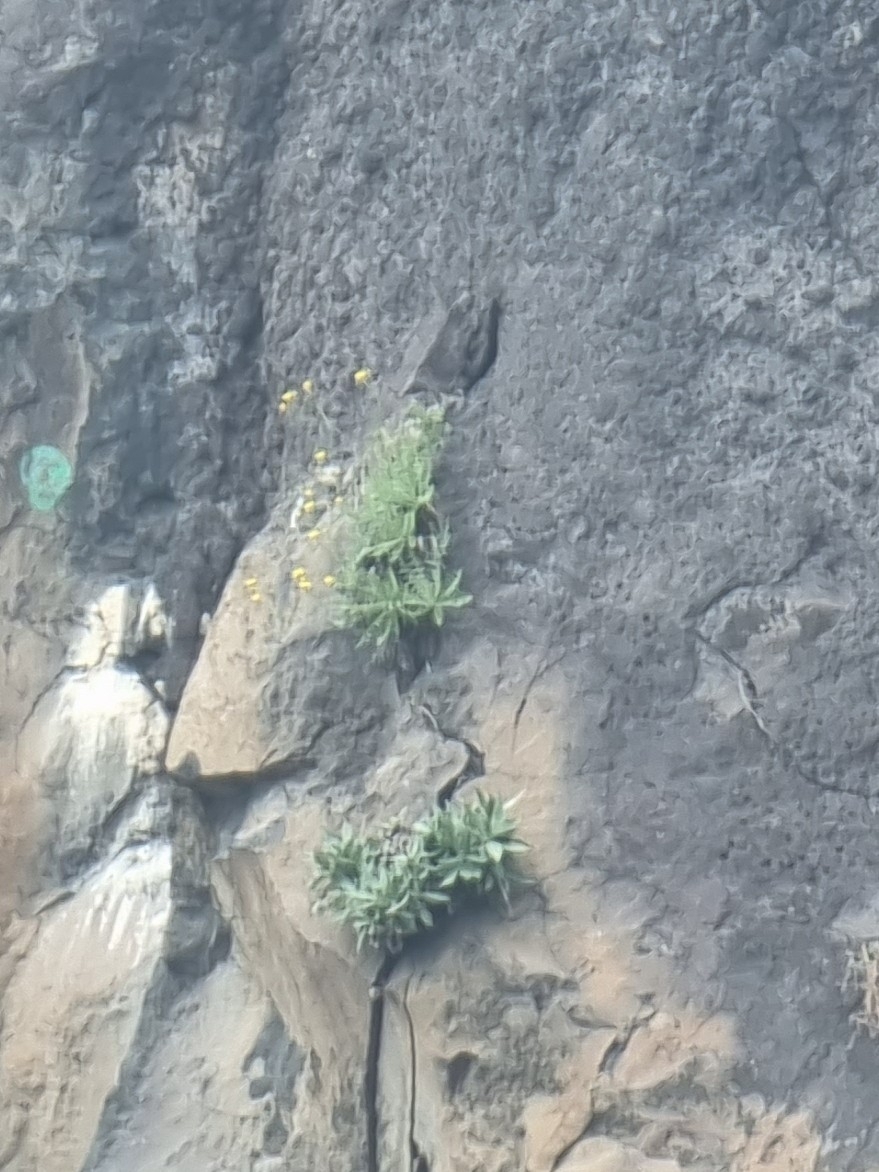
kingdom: Plantae
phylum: Tracheophyta
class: Magnoliopsida
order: Asterales
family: Asteraceae
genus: Sonchus
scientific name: Sonchus ustulatus
